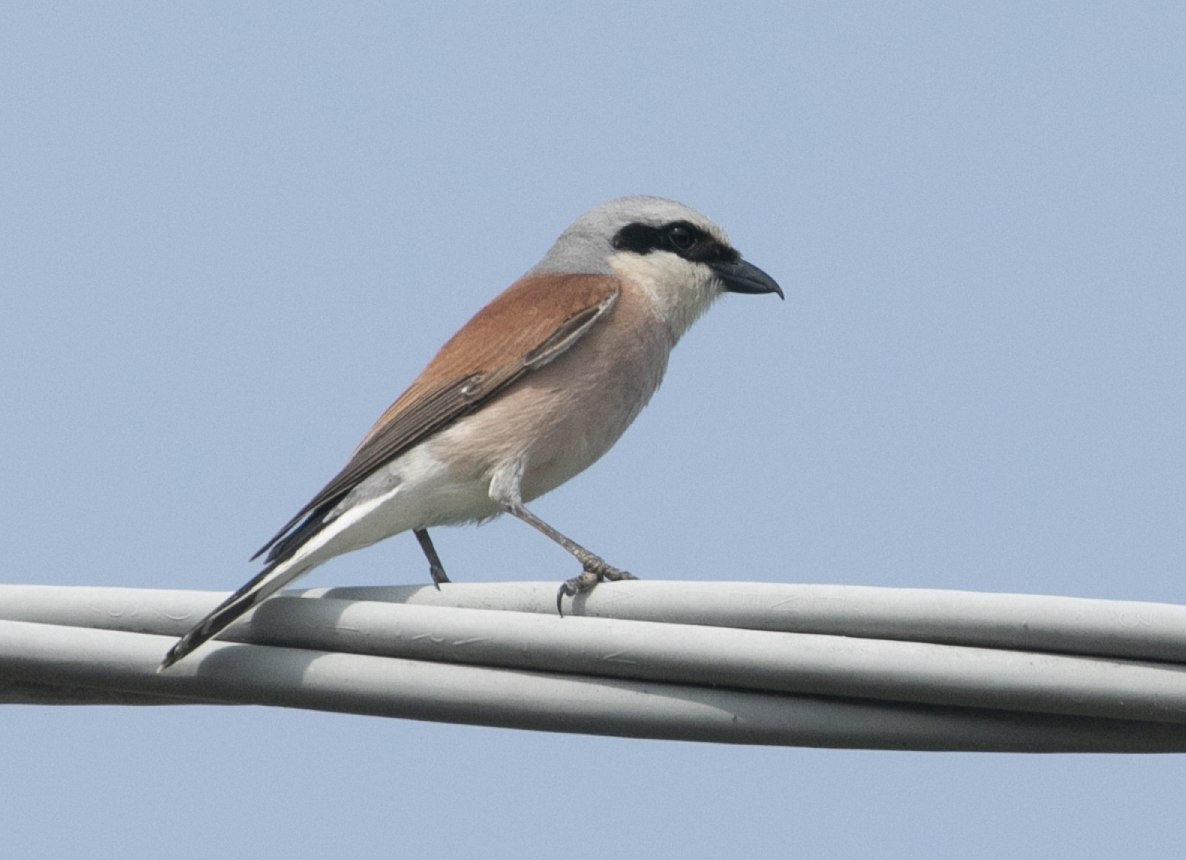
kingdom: Animalia
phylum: Chordata
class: Aves
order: Passeriformes
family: Laniidae
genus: Lanius
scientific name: Lanius collurio
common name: Red-backed shrike
